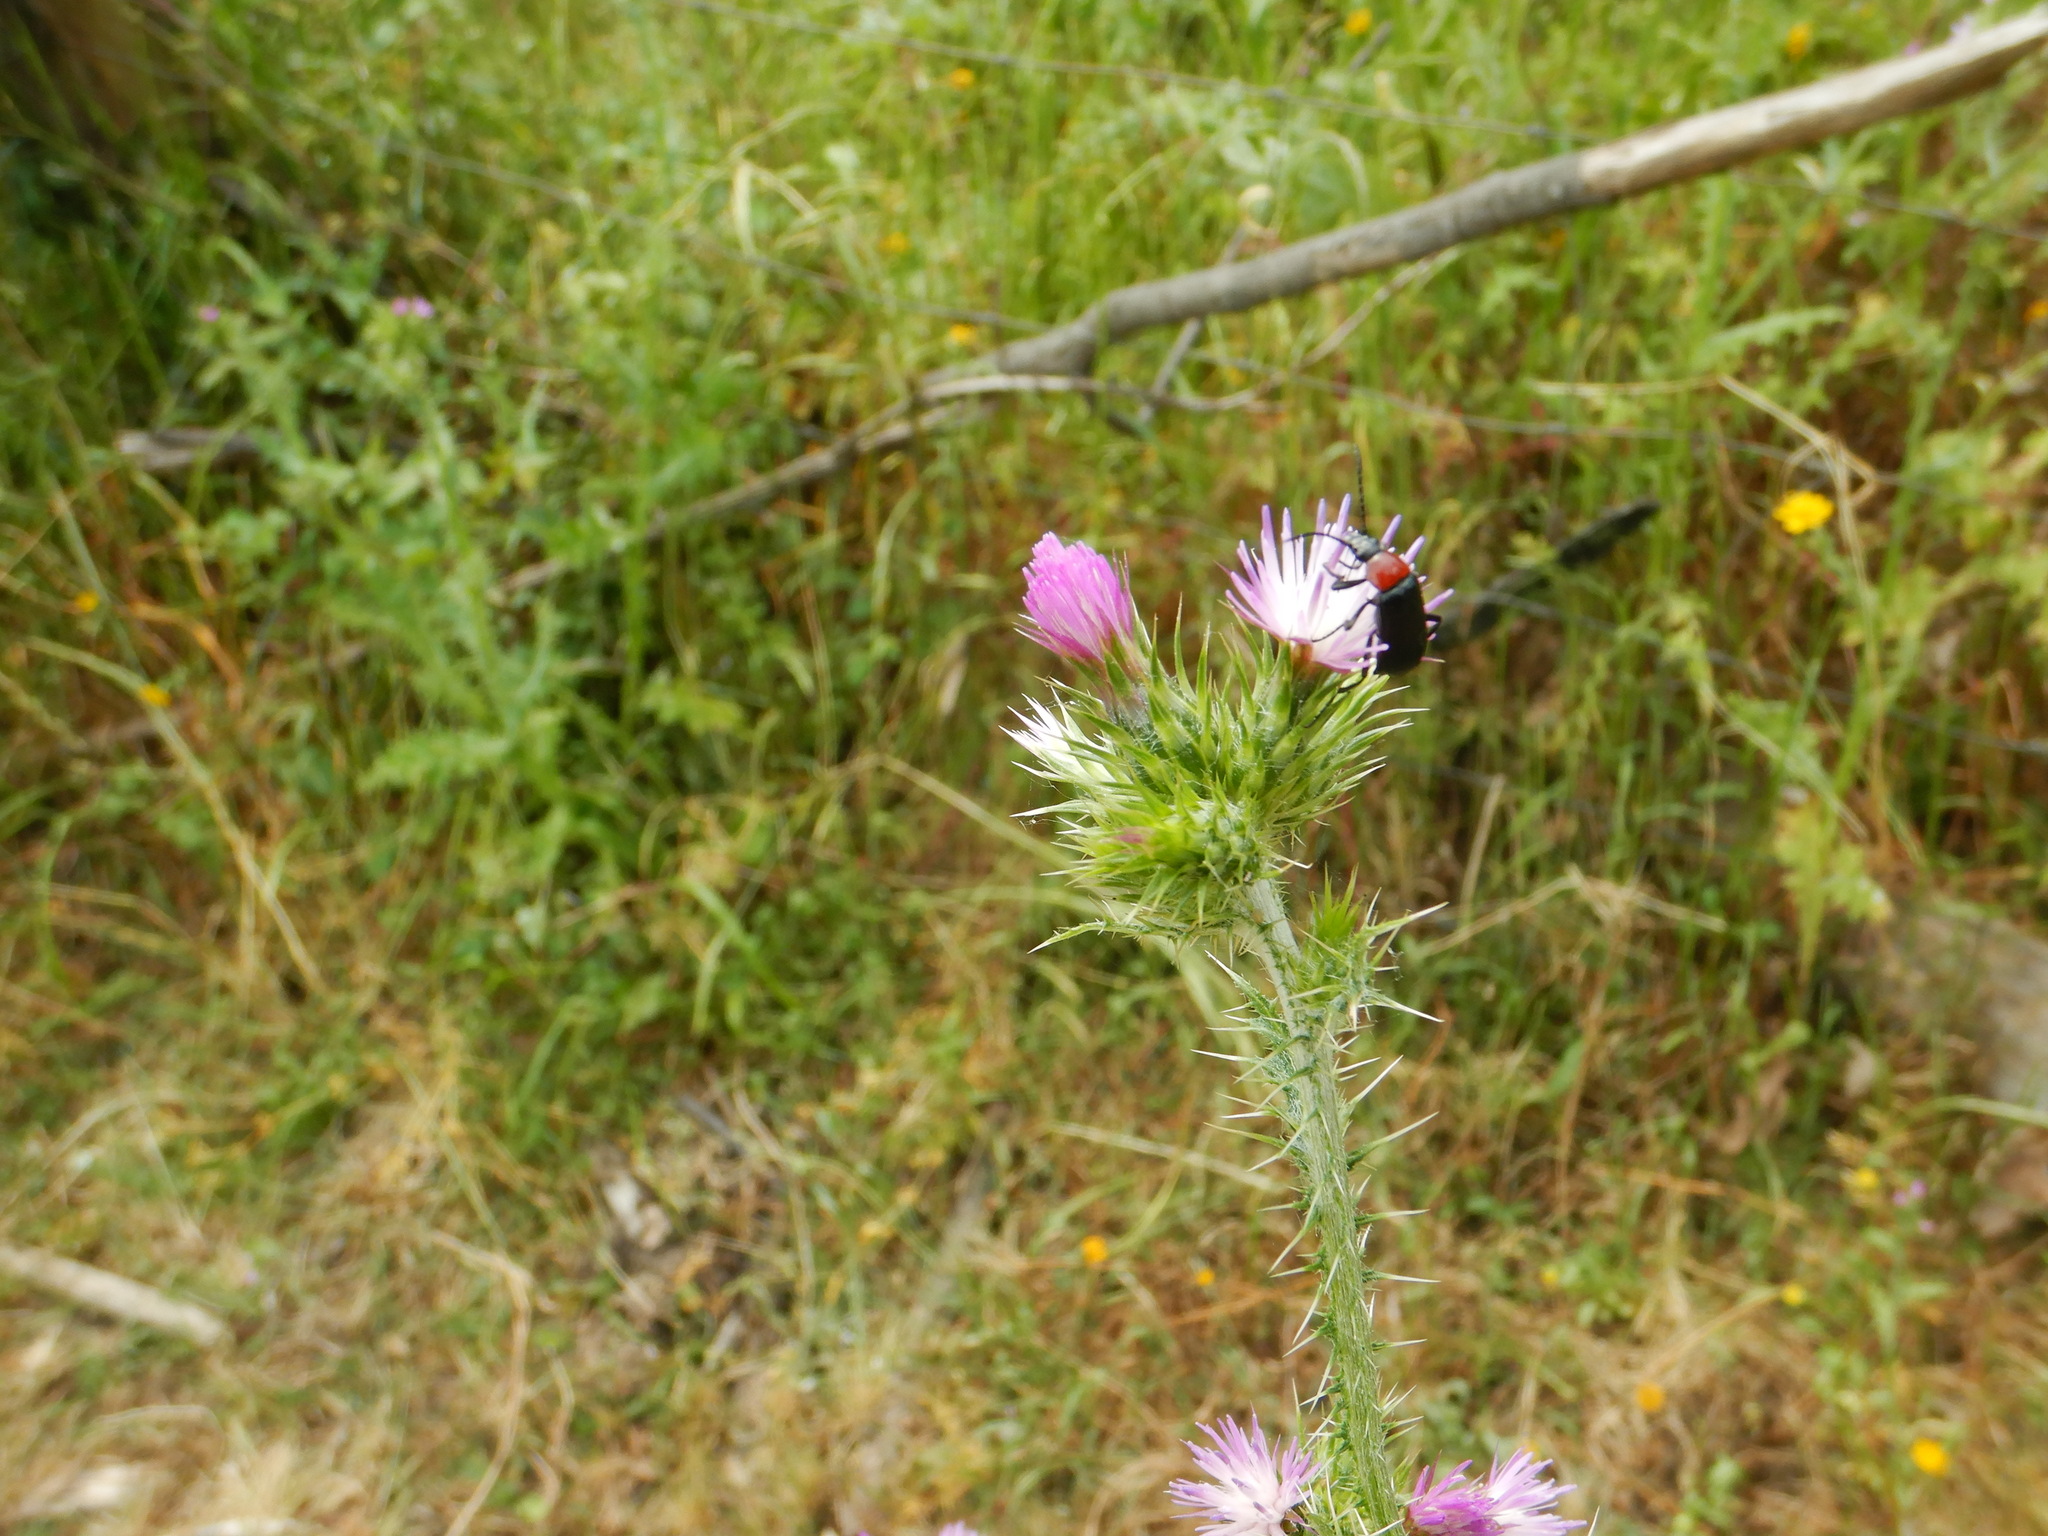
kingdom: Animalia
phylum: Arthropoda
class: Insecta
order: Coleoptera
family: Tenebrionidae
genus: Heliotaurus
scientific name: Heliotaurus ruficollis
